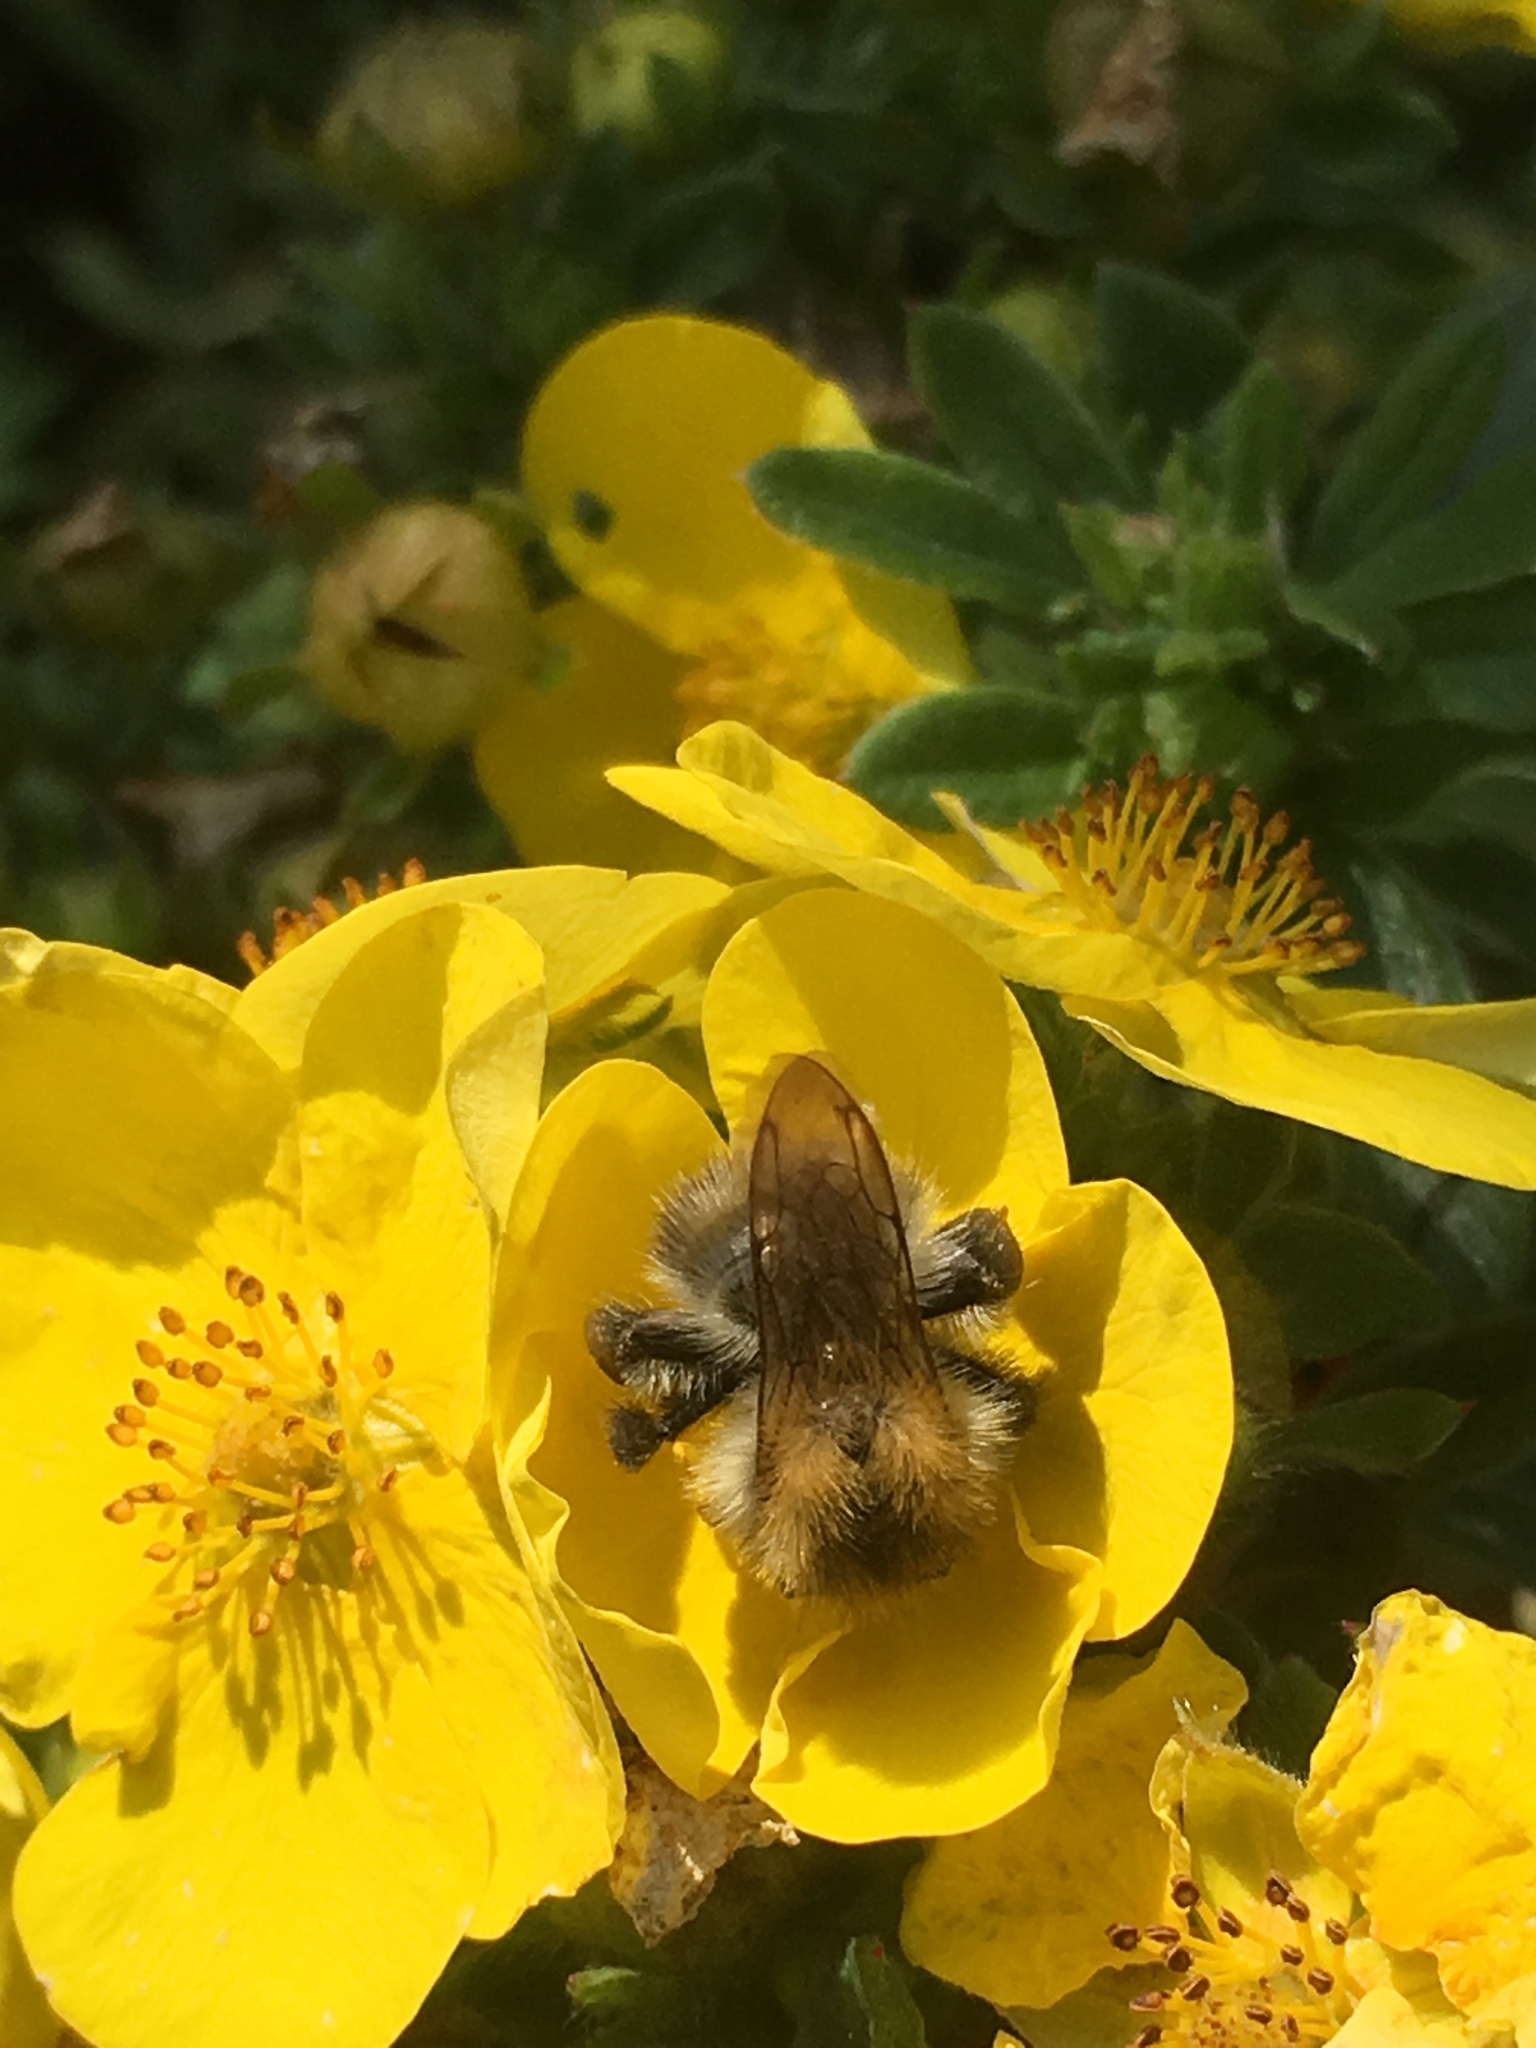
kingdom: Animalia
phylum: Arthropoda
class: Insecta
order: Hymenoptera
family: Apidae
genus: Bombus
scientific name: Bombus pascuorum
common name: Common carder bee
